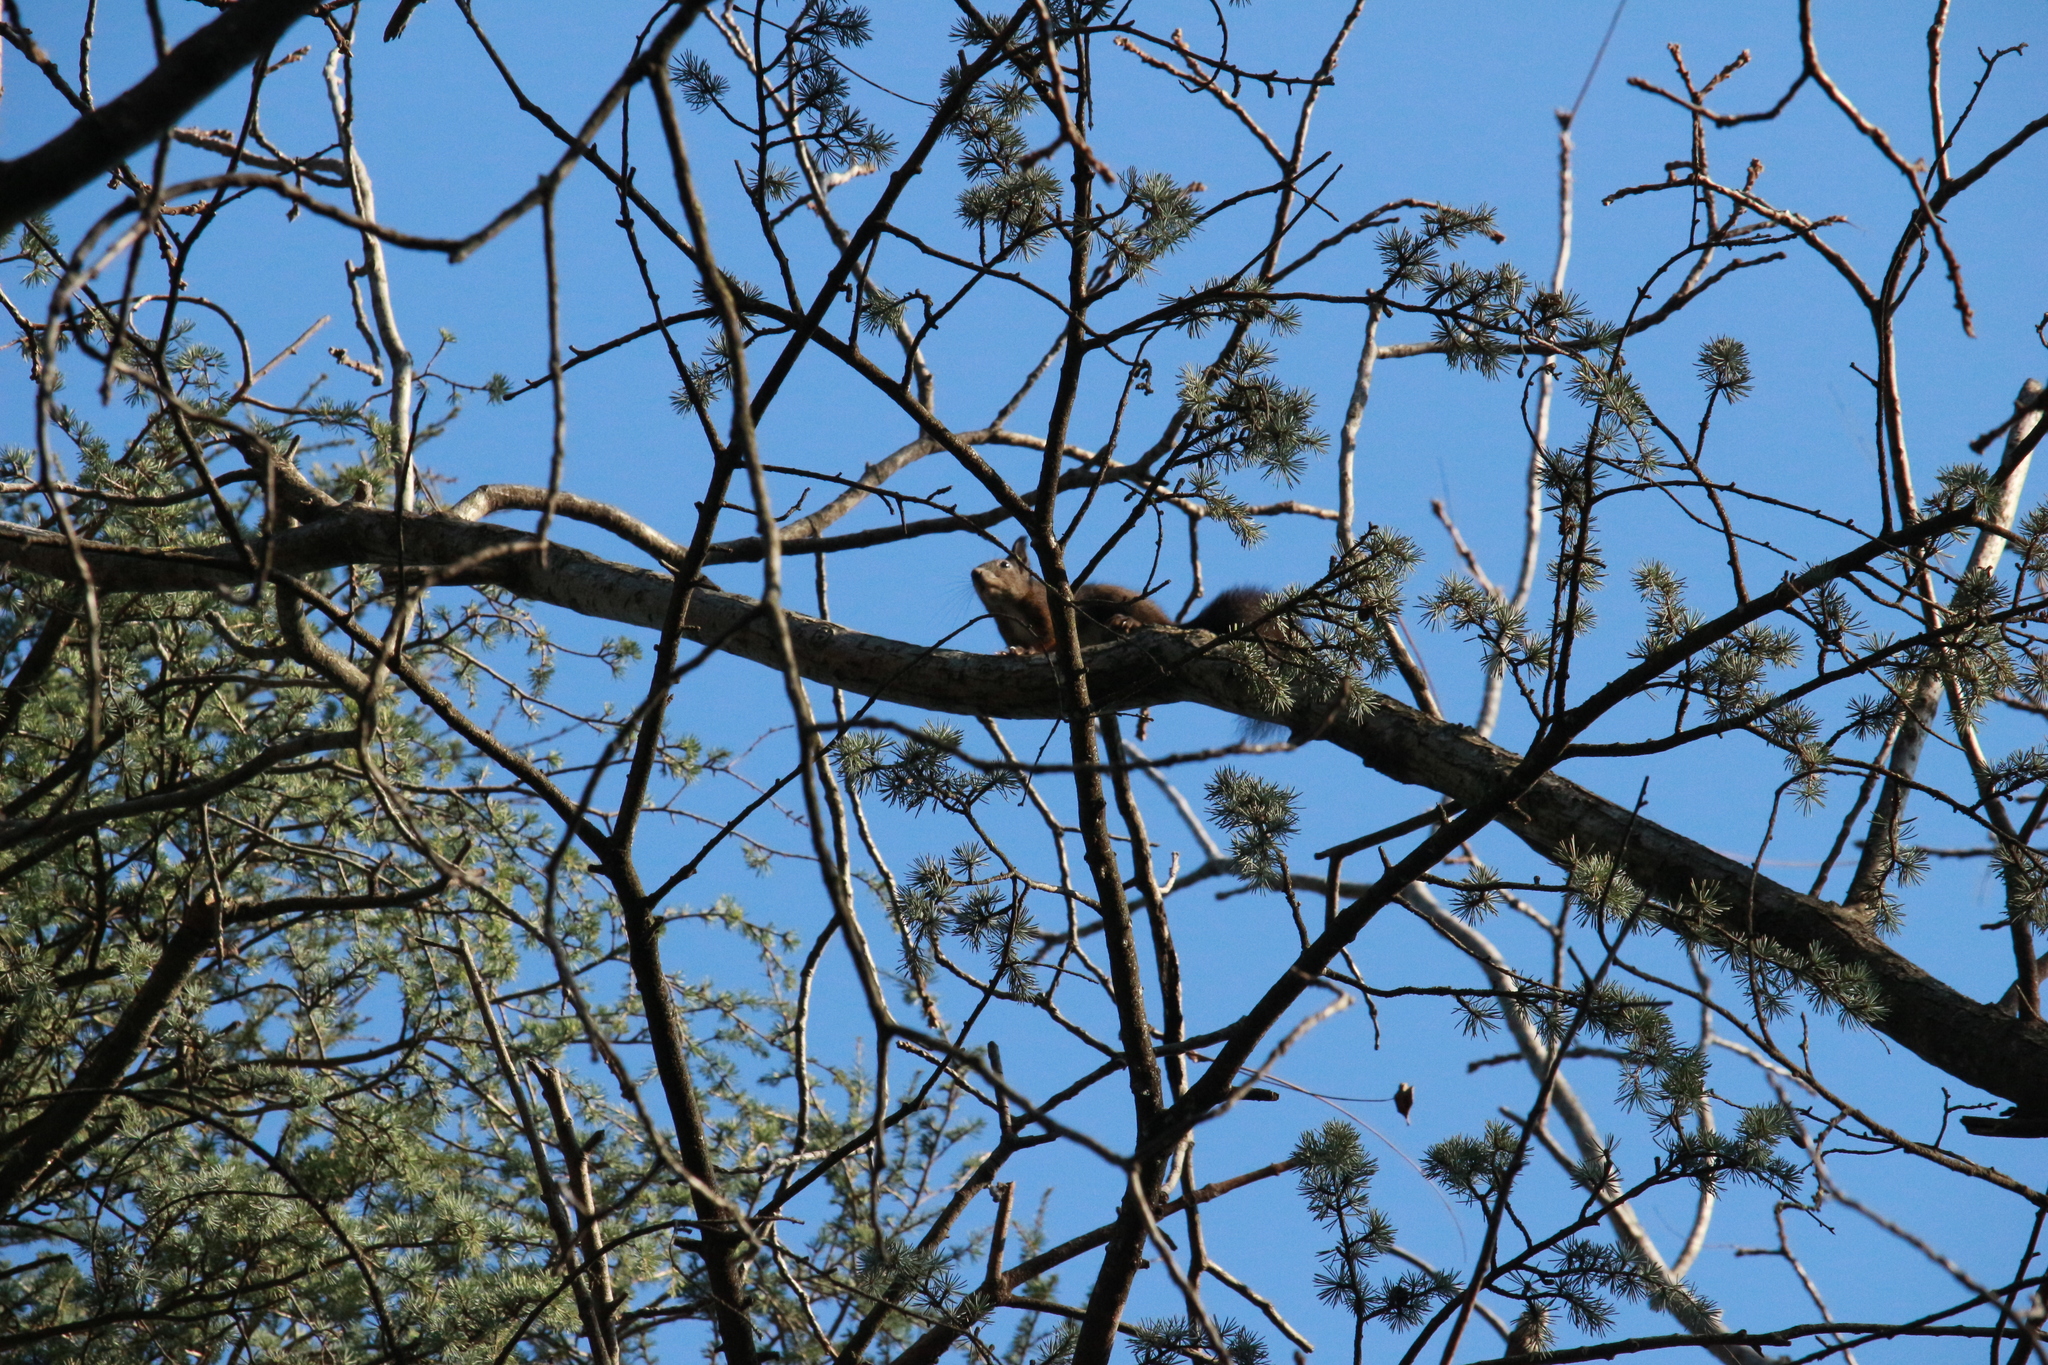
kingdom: Animalia
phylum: Chordata
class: Mammalia
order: Rodentia
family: Sciuridae
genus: Sciurus
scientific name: Sciurus vulgaris
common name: Eurasian red squirrel
